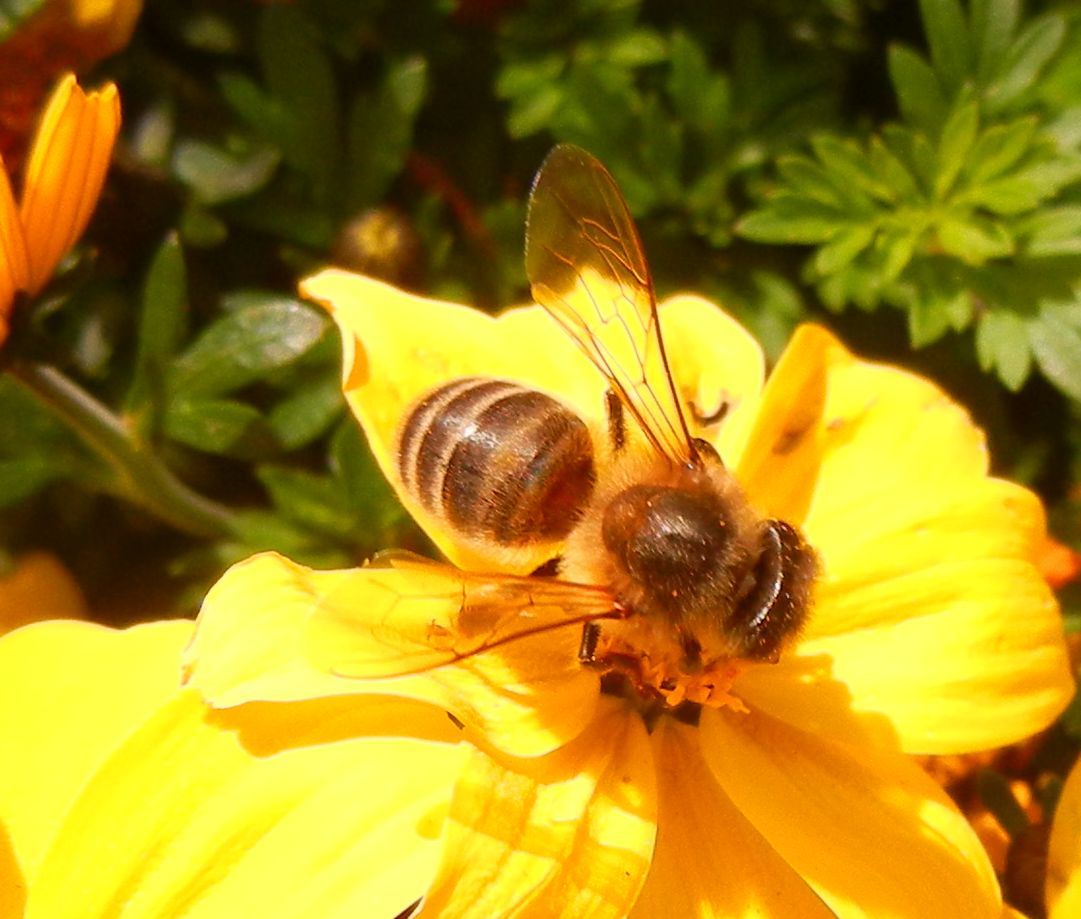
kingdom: Animalia
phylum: Arthropoda
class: Insecta
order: Hymenoptera
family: Apidae
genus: Apis
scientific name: Apis mellifera
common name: Honey bee
